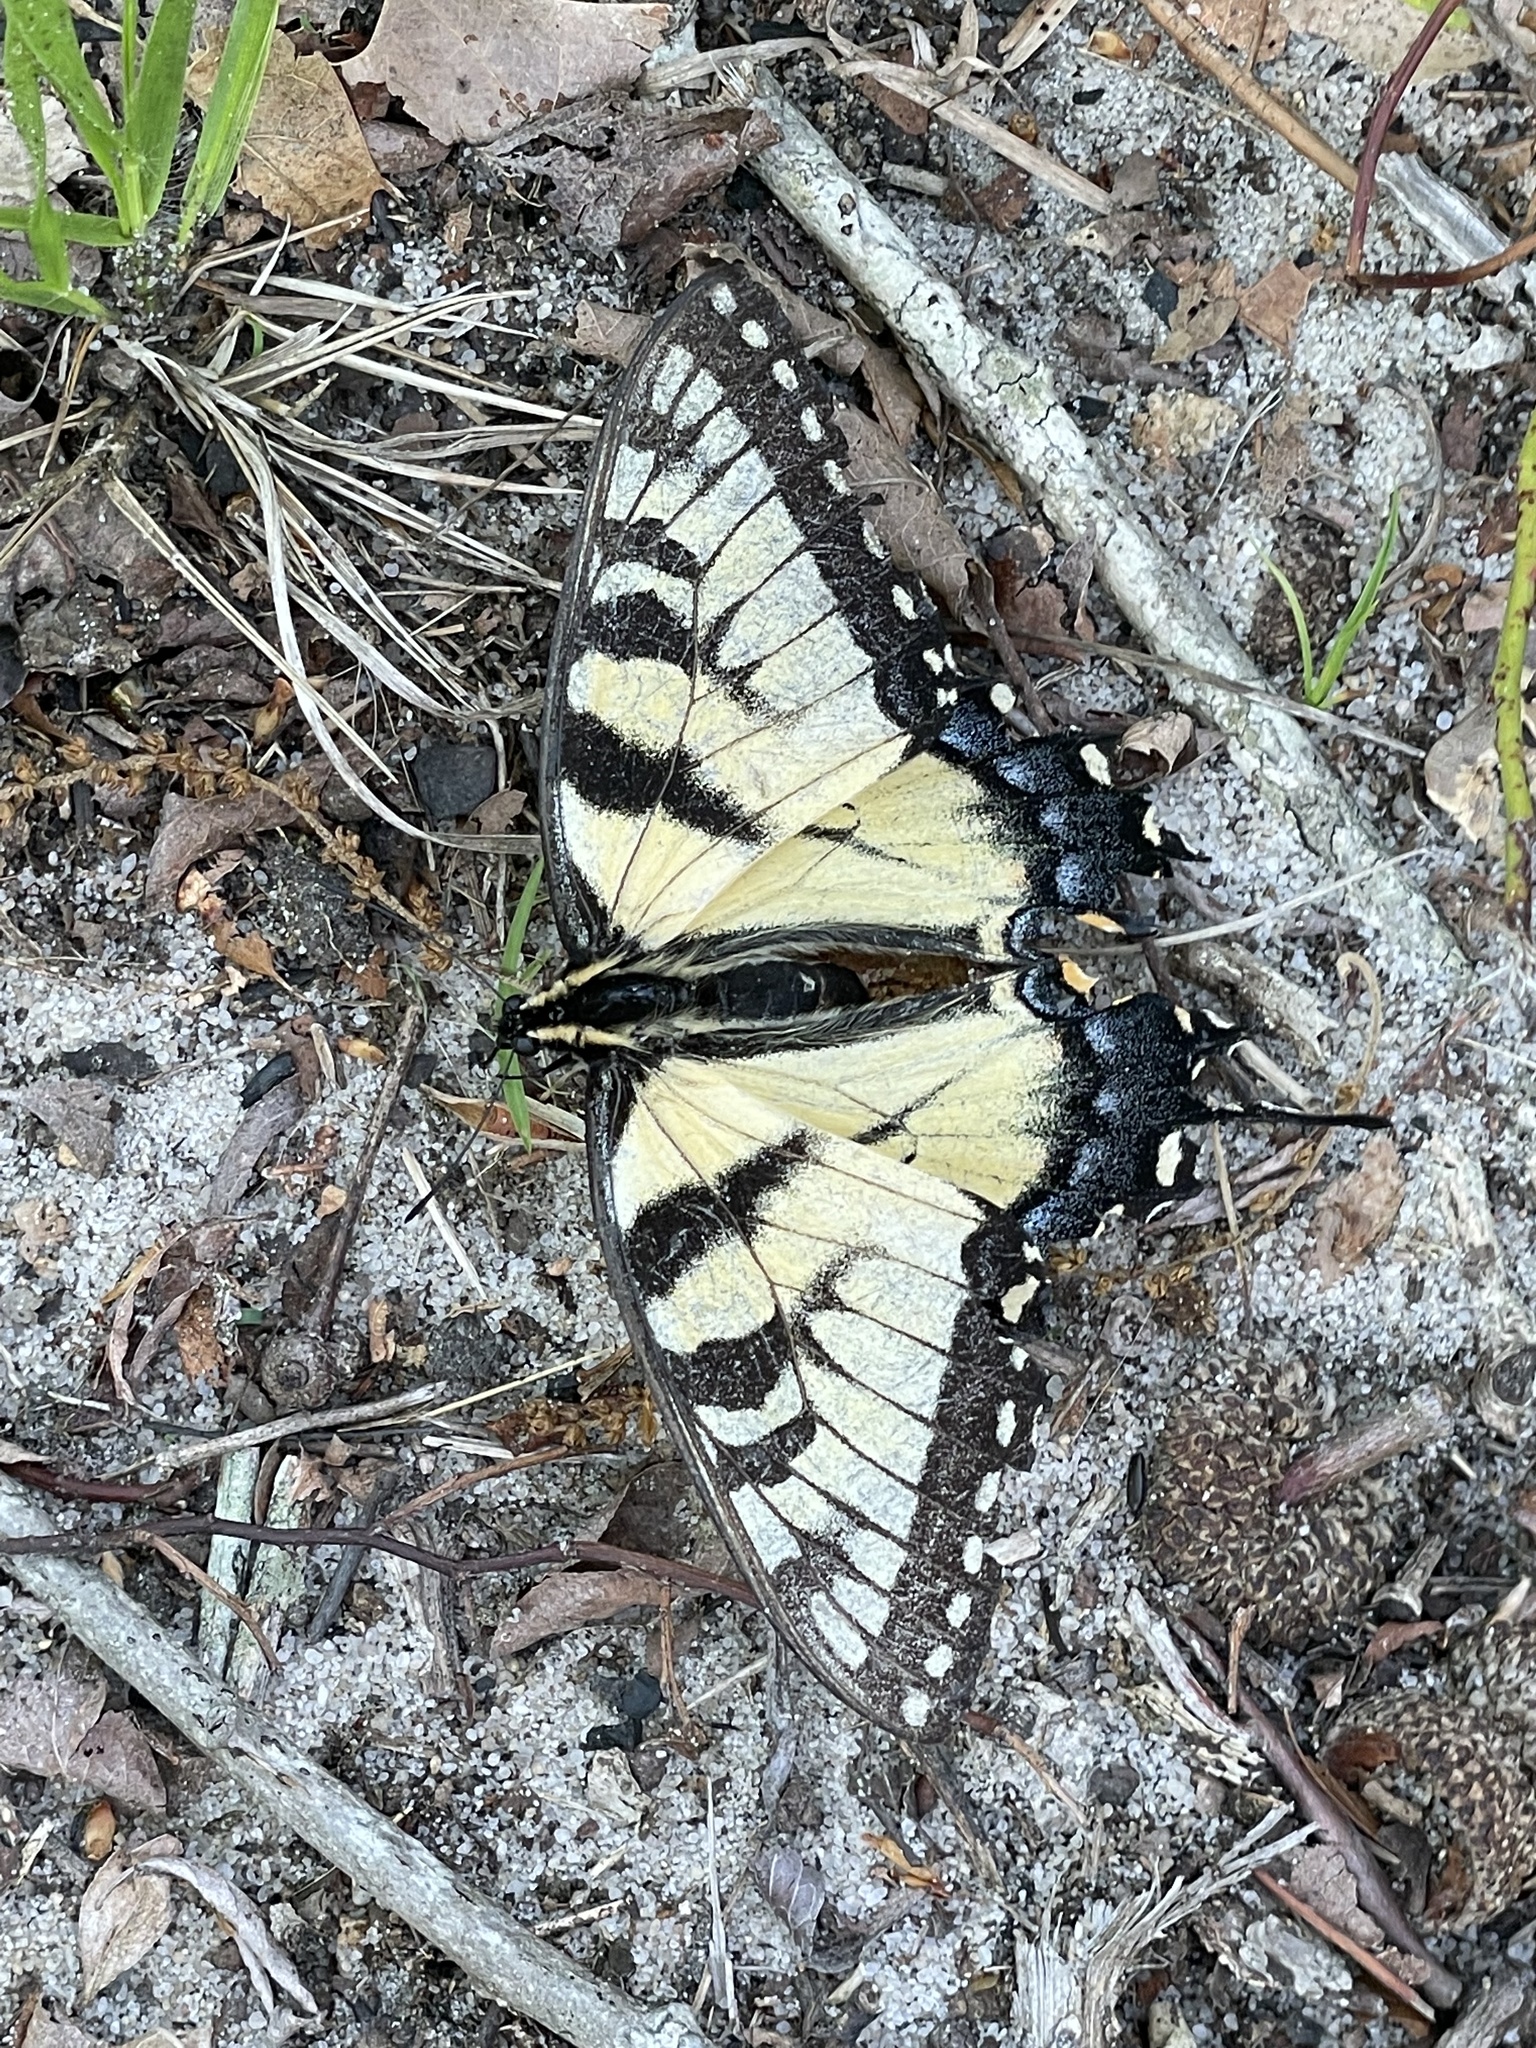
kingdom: Animalia
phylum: Arthropoda
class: Insecta
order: Lepidoptera
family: Papilionidae
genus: Papilio
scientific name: Papilio glaucus
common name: Tiger swallowtail
